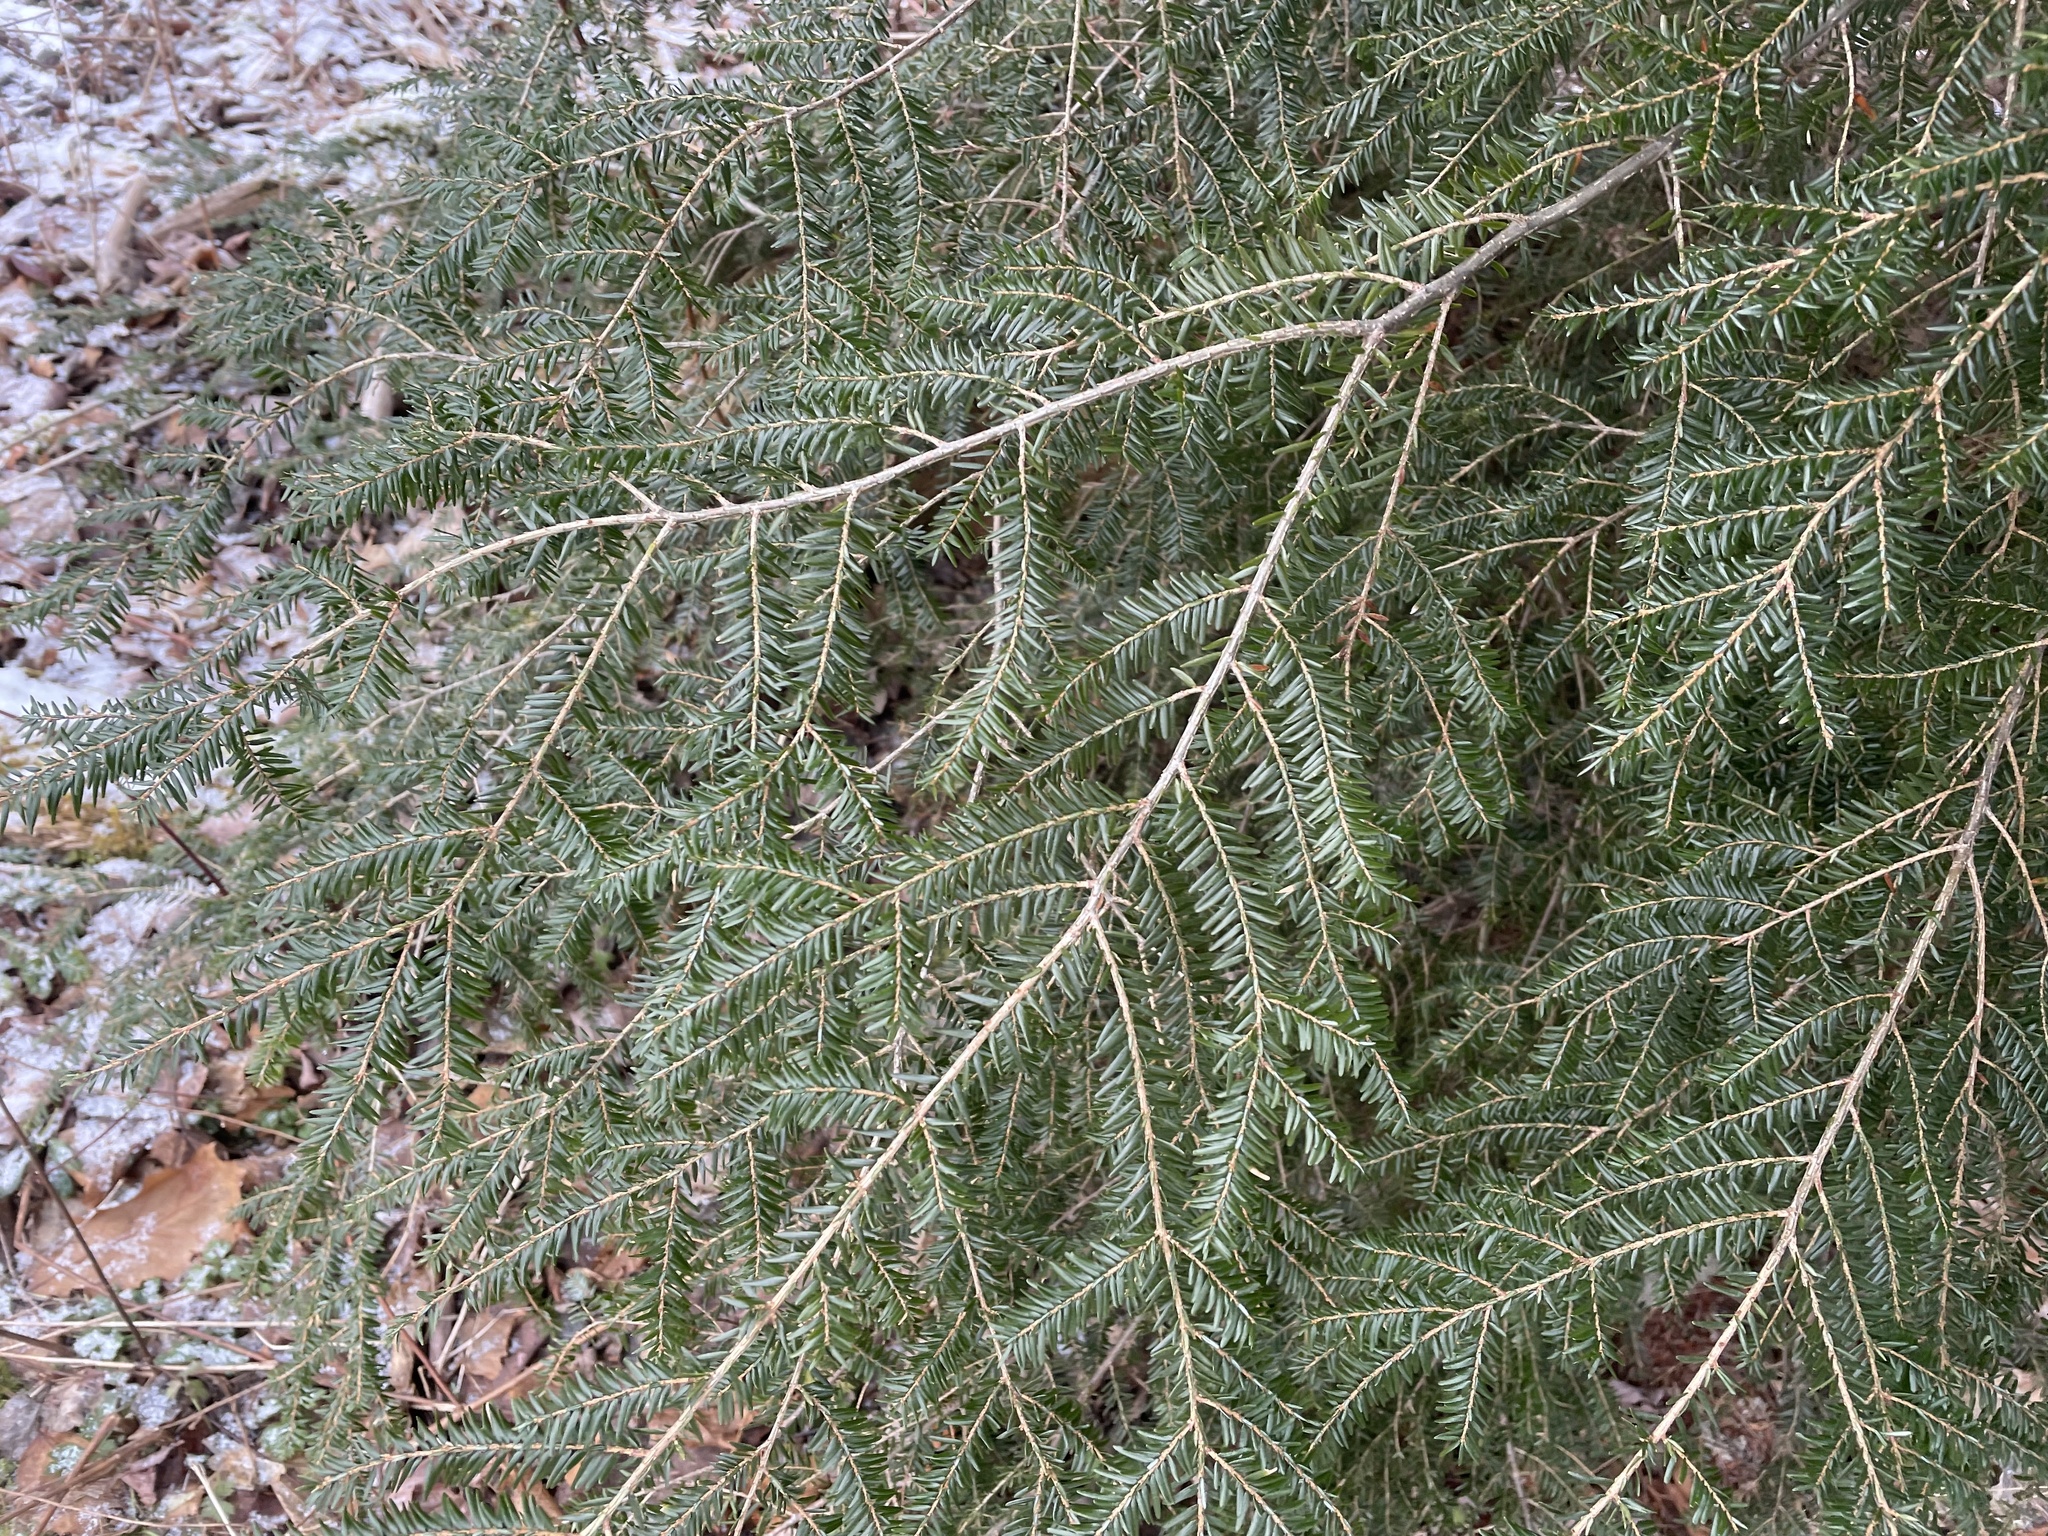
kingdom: Plantae
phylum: Tracheophyta
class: Pinopsida
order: Pinales
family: Pinaceae
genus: Tsuga
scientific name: Tsuga canadensis
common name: Eastern hemlock
